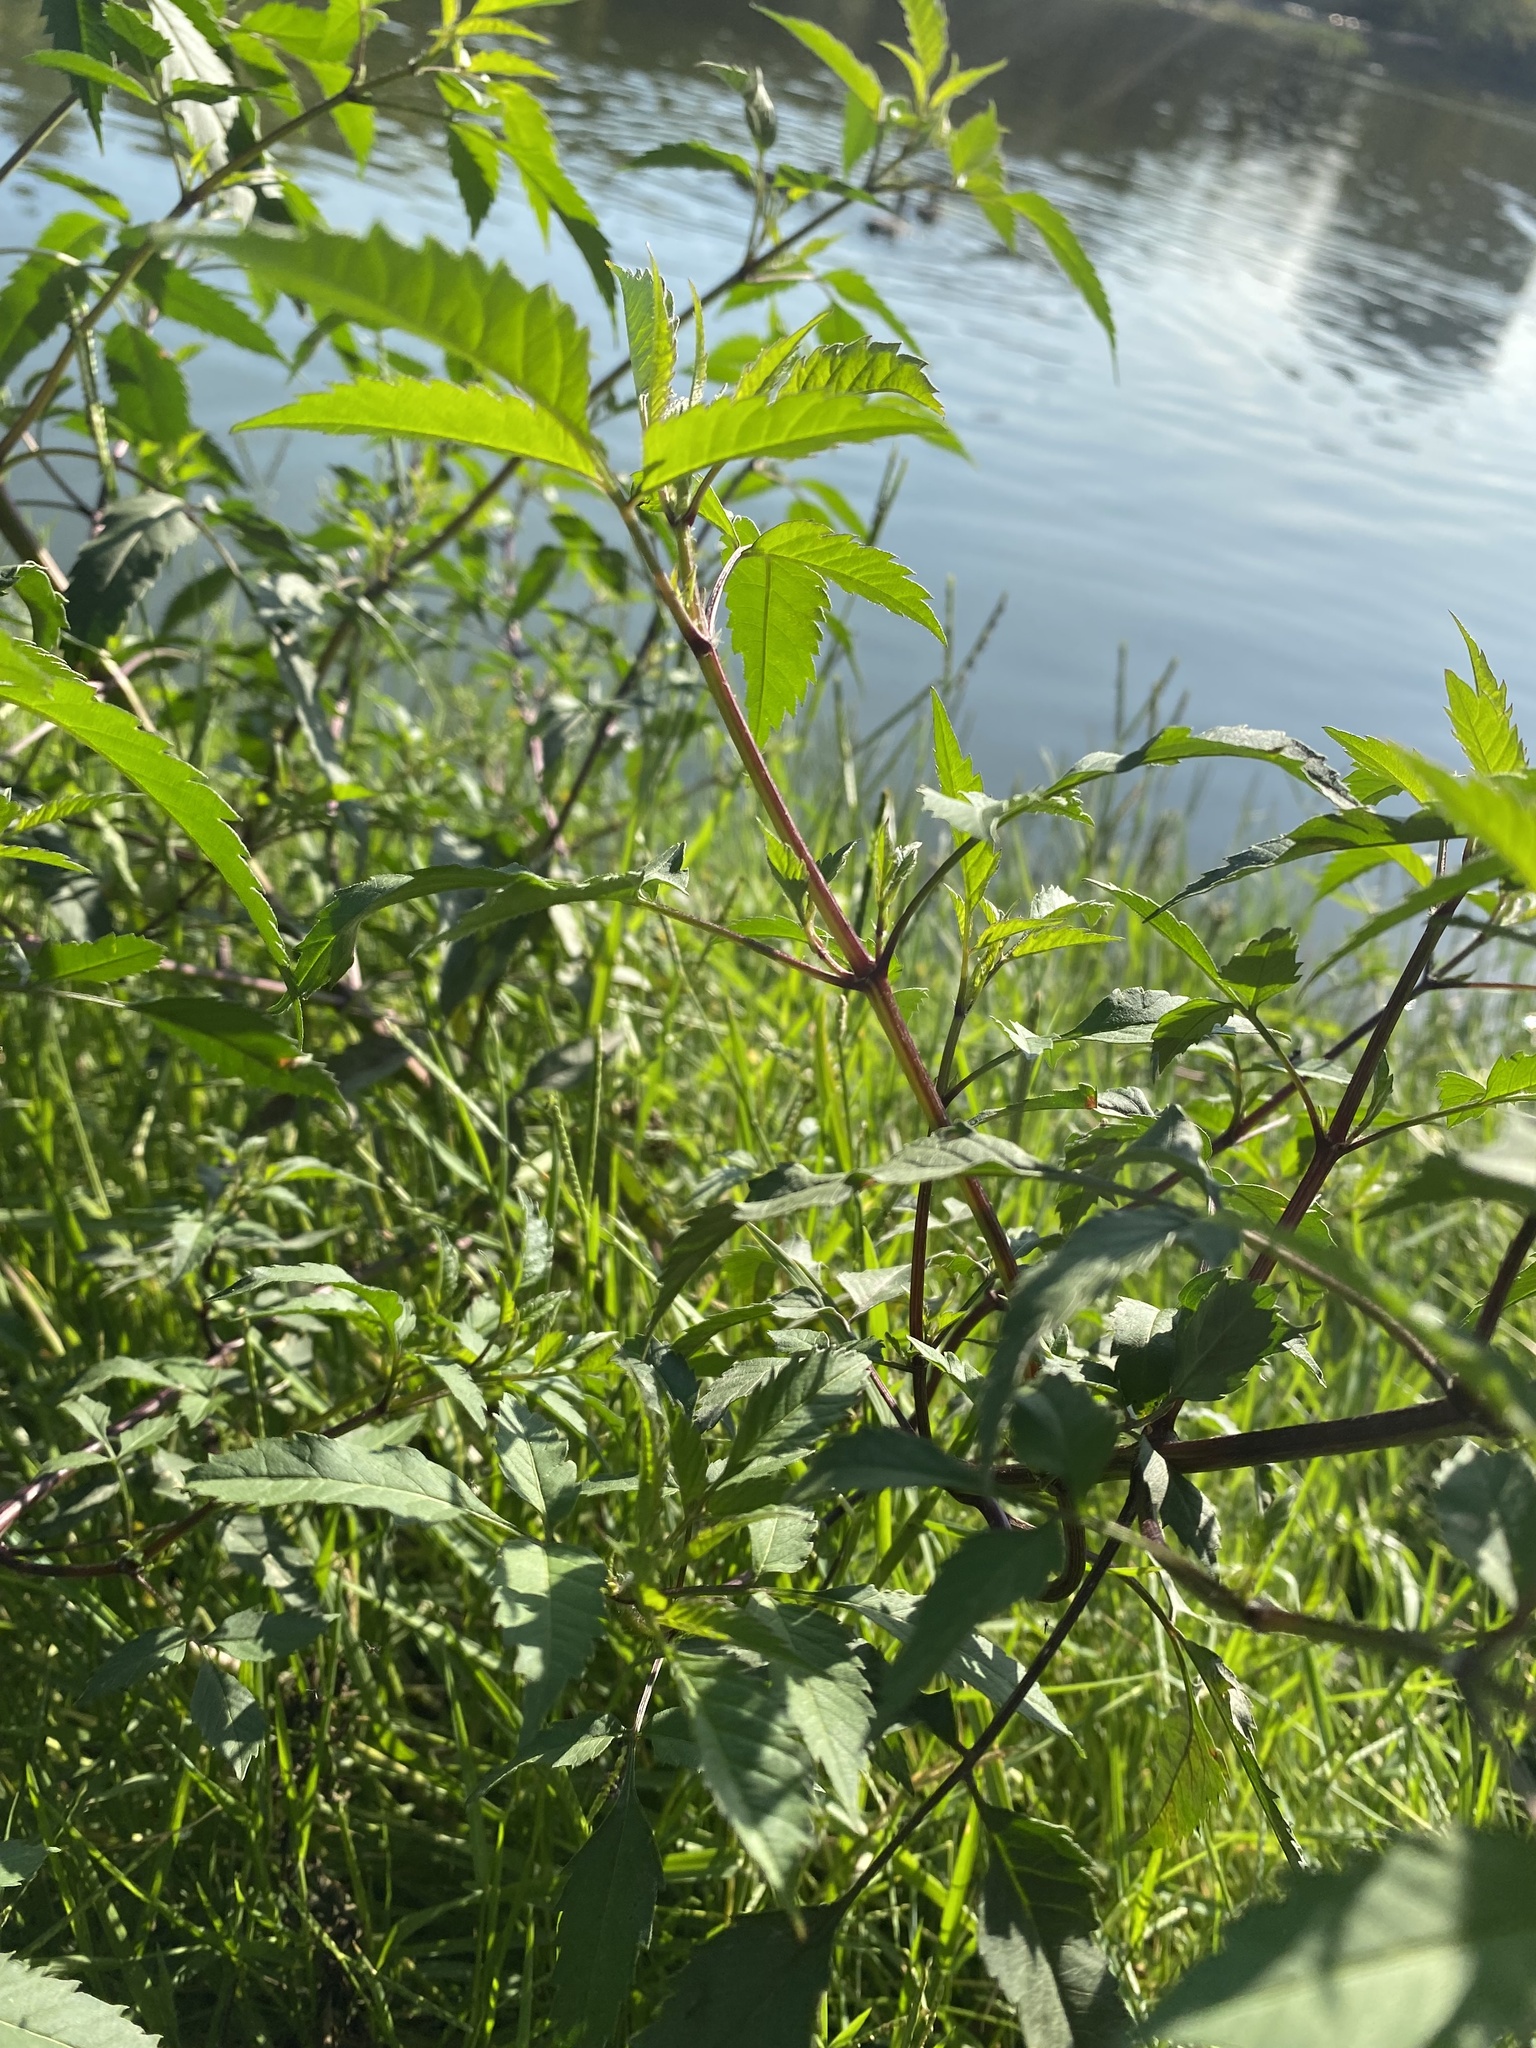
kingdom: Plantae
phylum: Tracheophyta
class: Magnoliopsida
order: Asterales
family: Asteraceae
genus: Bidens
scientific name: Bidens frondosa
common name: Beggarticks
